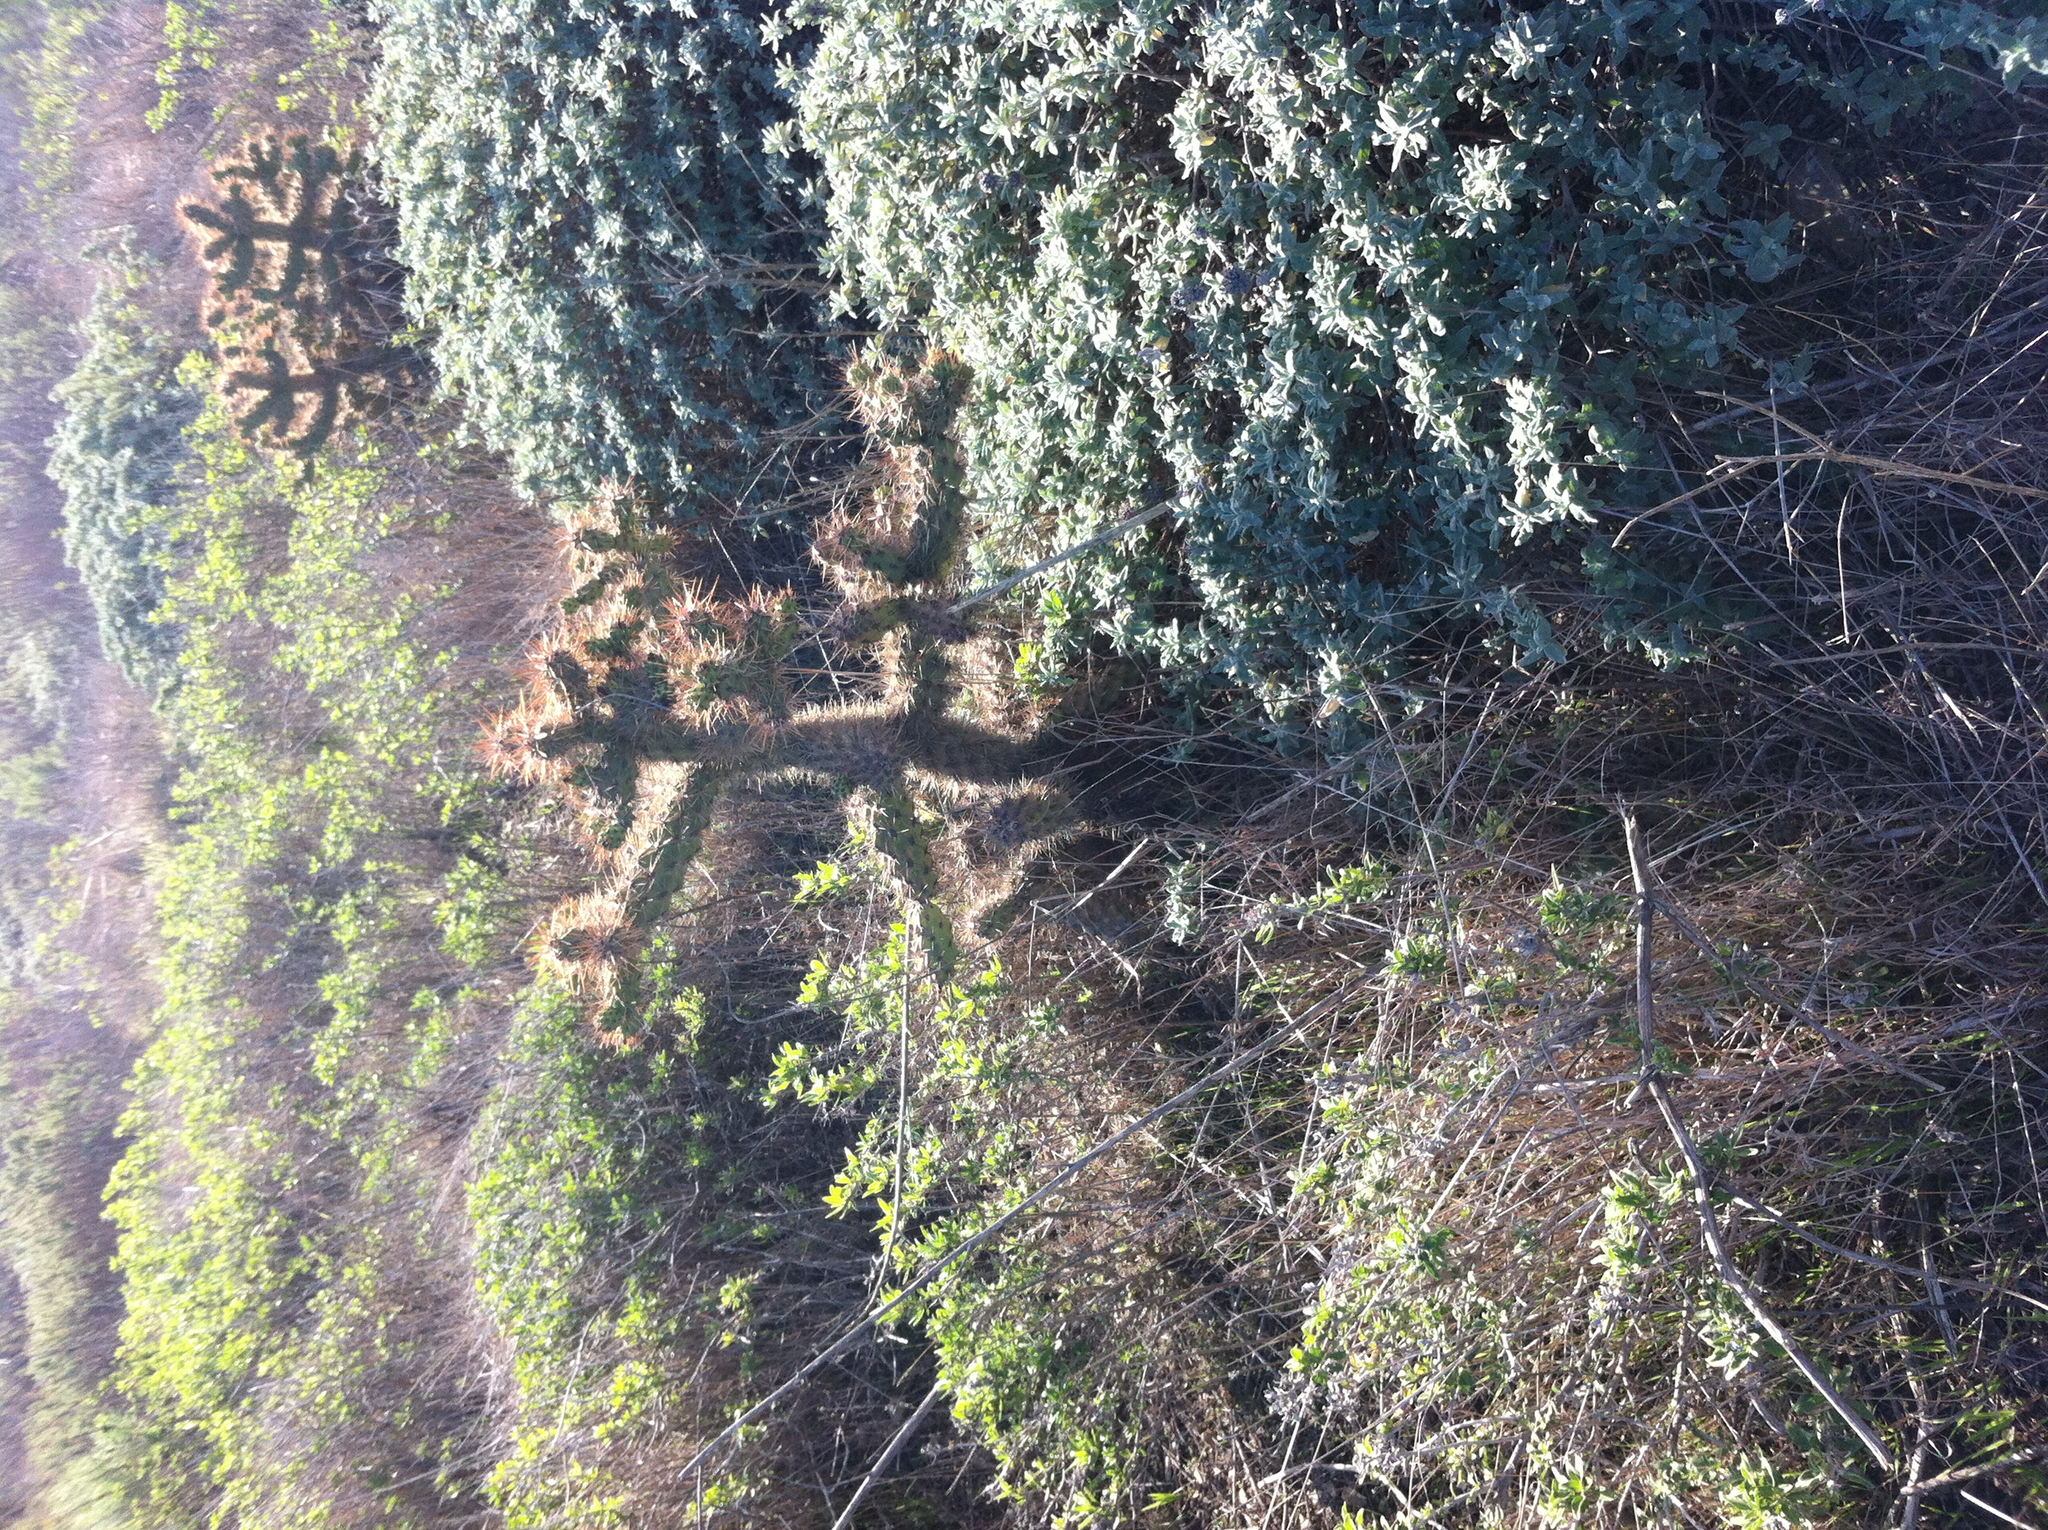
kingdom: Plantae
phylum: Tracheophyta
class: Magnoliopsida
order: Caryophyllales
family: Cactaceae
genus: Cylindropuntia
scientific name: Cylindropuntia prolifera
